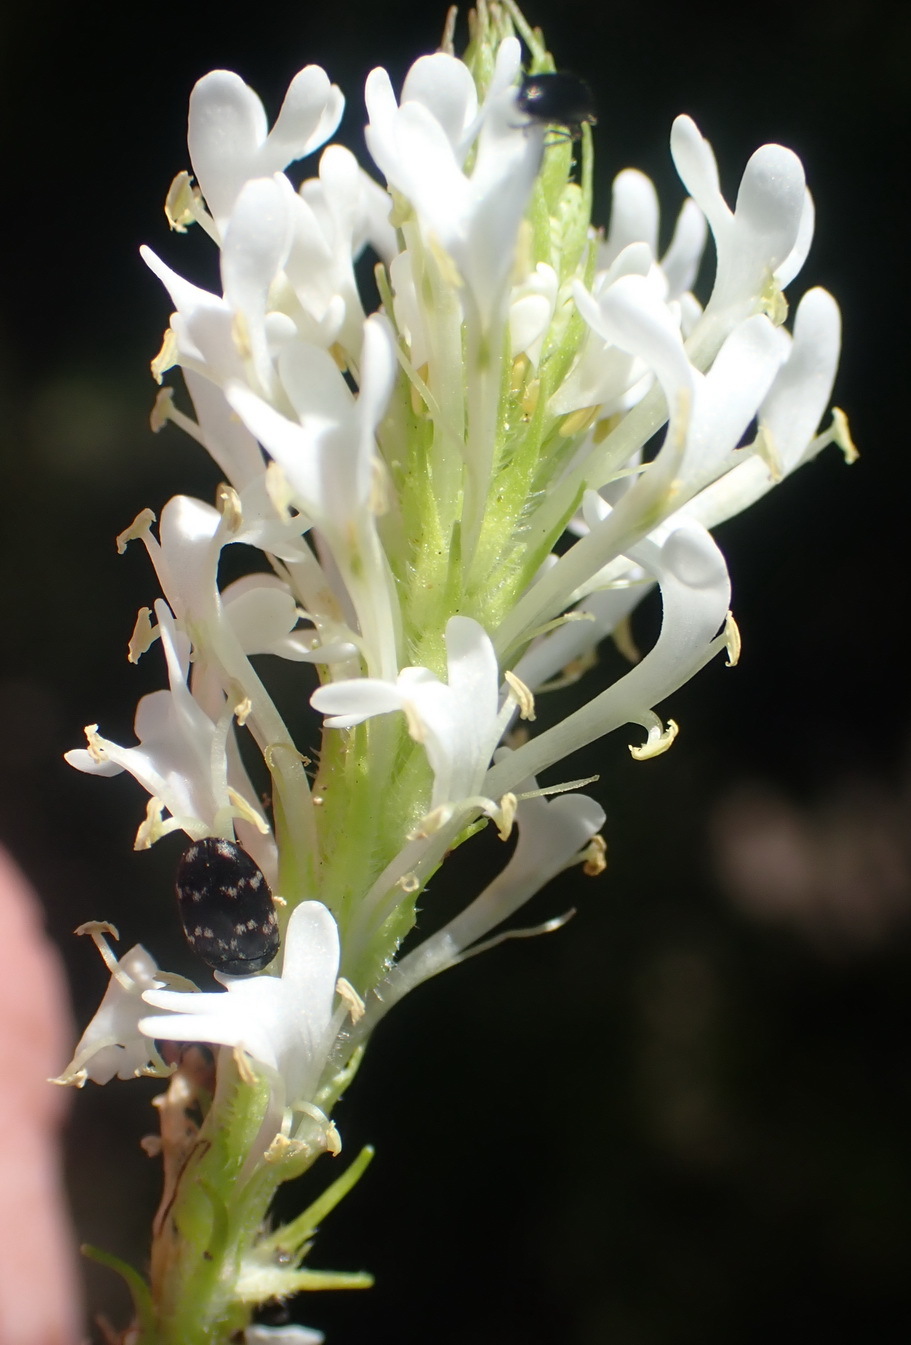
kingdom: Plantae
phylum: Tracheophyta
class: Magnoliopsida
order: Lamiales
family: Scrophulariaceae
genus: Dischisma
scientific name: Dischisma ciliatum
